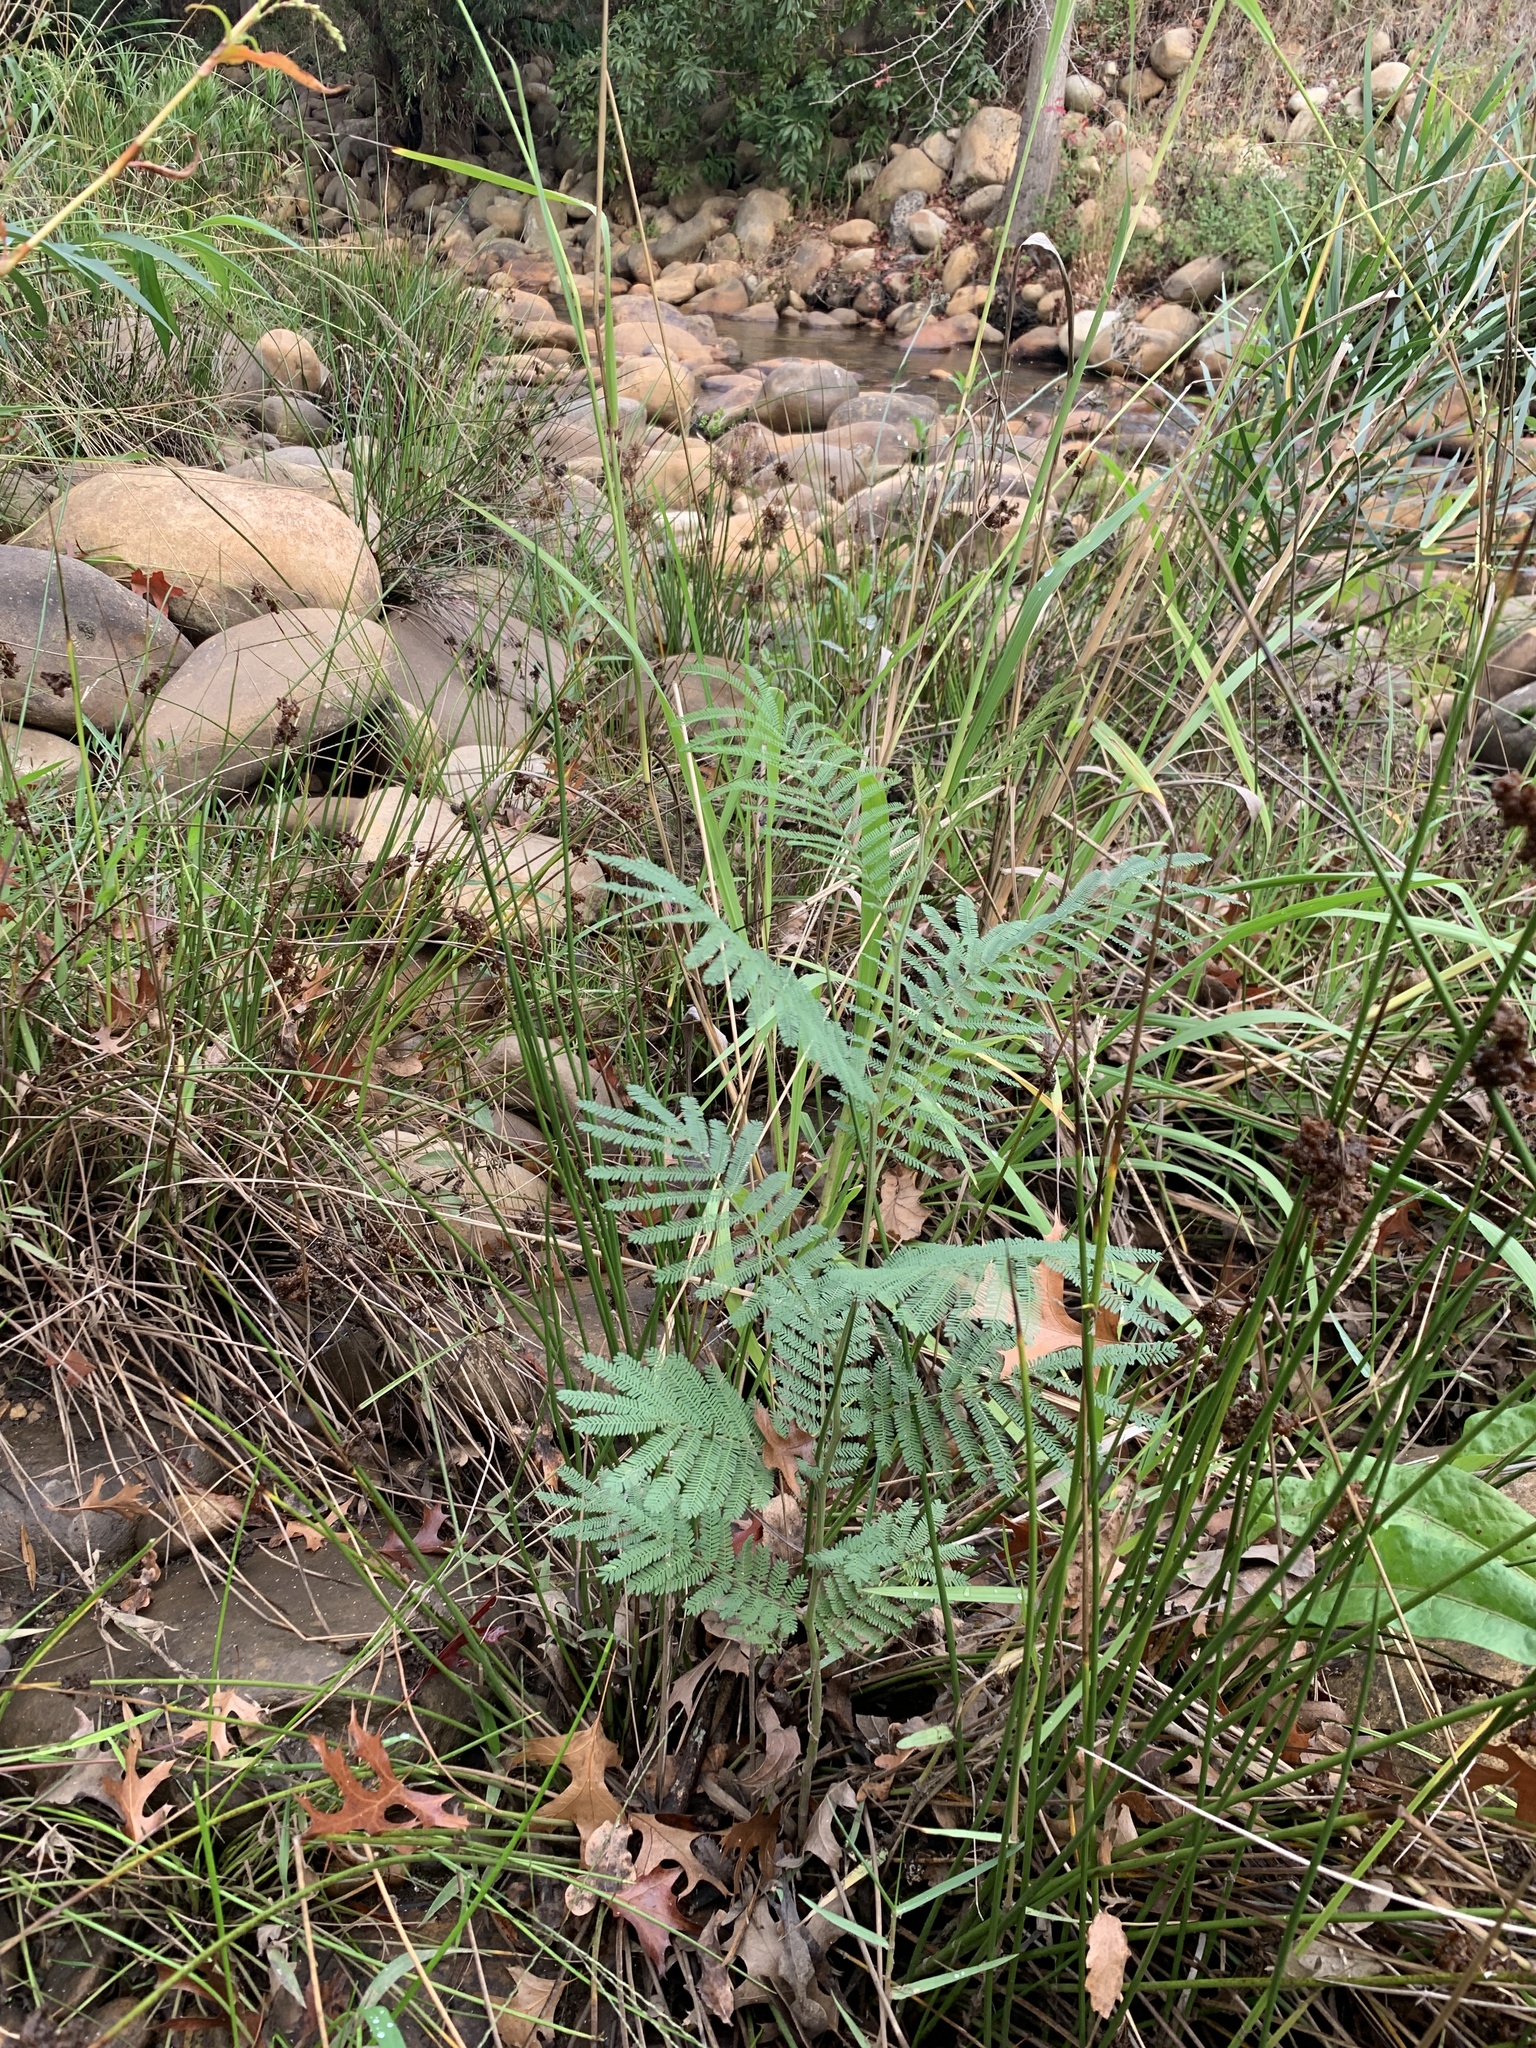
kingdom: Plantae
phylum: Tracheophyta
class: Magnoliopsida
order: Fabales
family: Fabaceae
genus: Acacia
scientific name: Acacia mearnsii
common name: Black wattle
